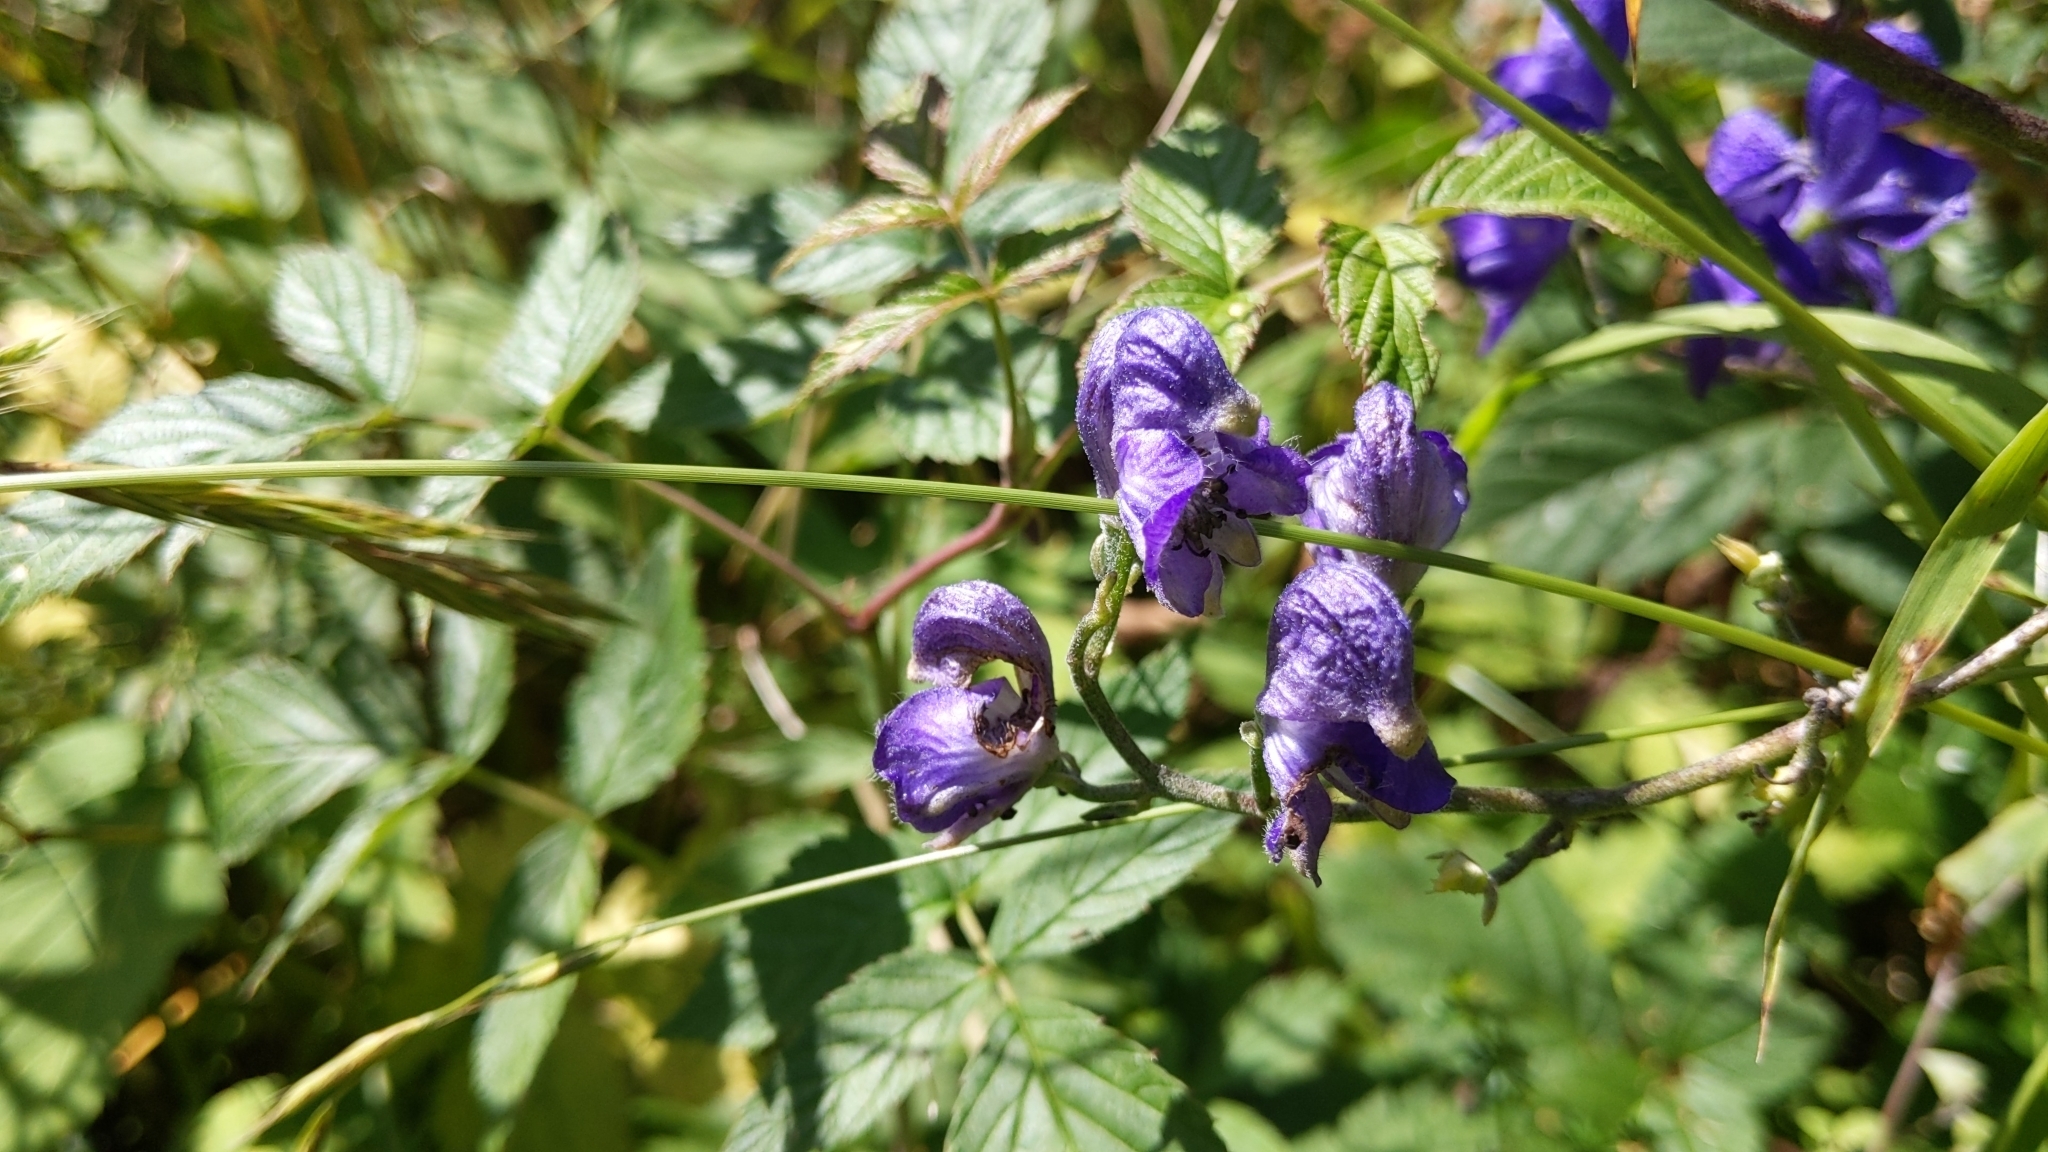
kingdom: Plantae
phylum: Tracheophyta
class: Magnoliopsida
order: Ranunculales
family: Ranunculaceae
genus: Aconitum
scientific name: Aconitum napellus
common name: Garden monkshood
